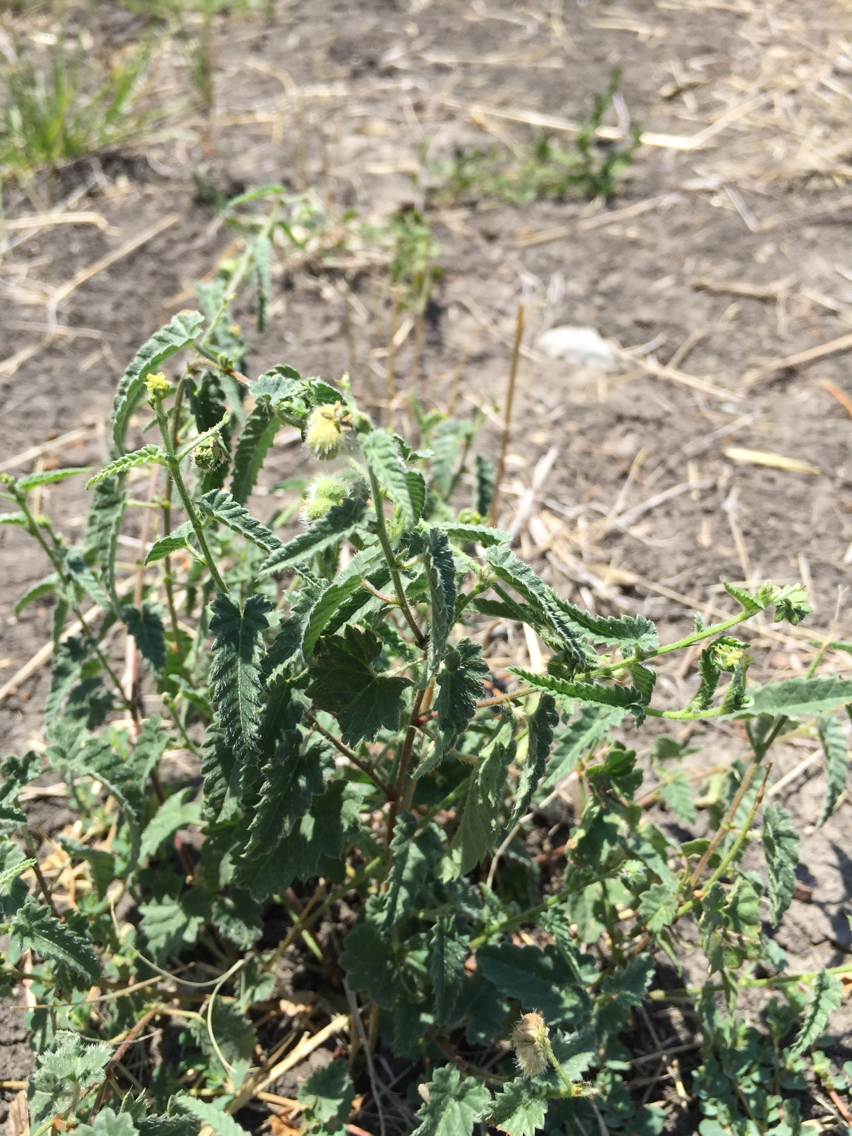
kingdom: Plantae
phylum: Tracheophyta
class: Magnoliopsida
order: Malpighiales
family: Euphorbiaceae
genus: Tragia
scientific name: Tragia ramosa
